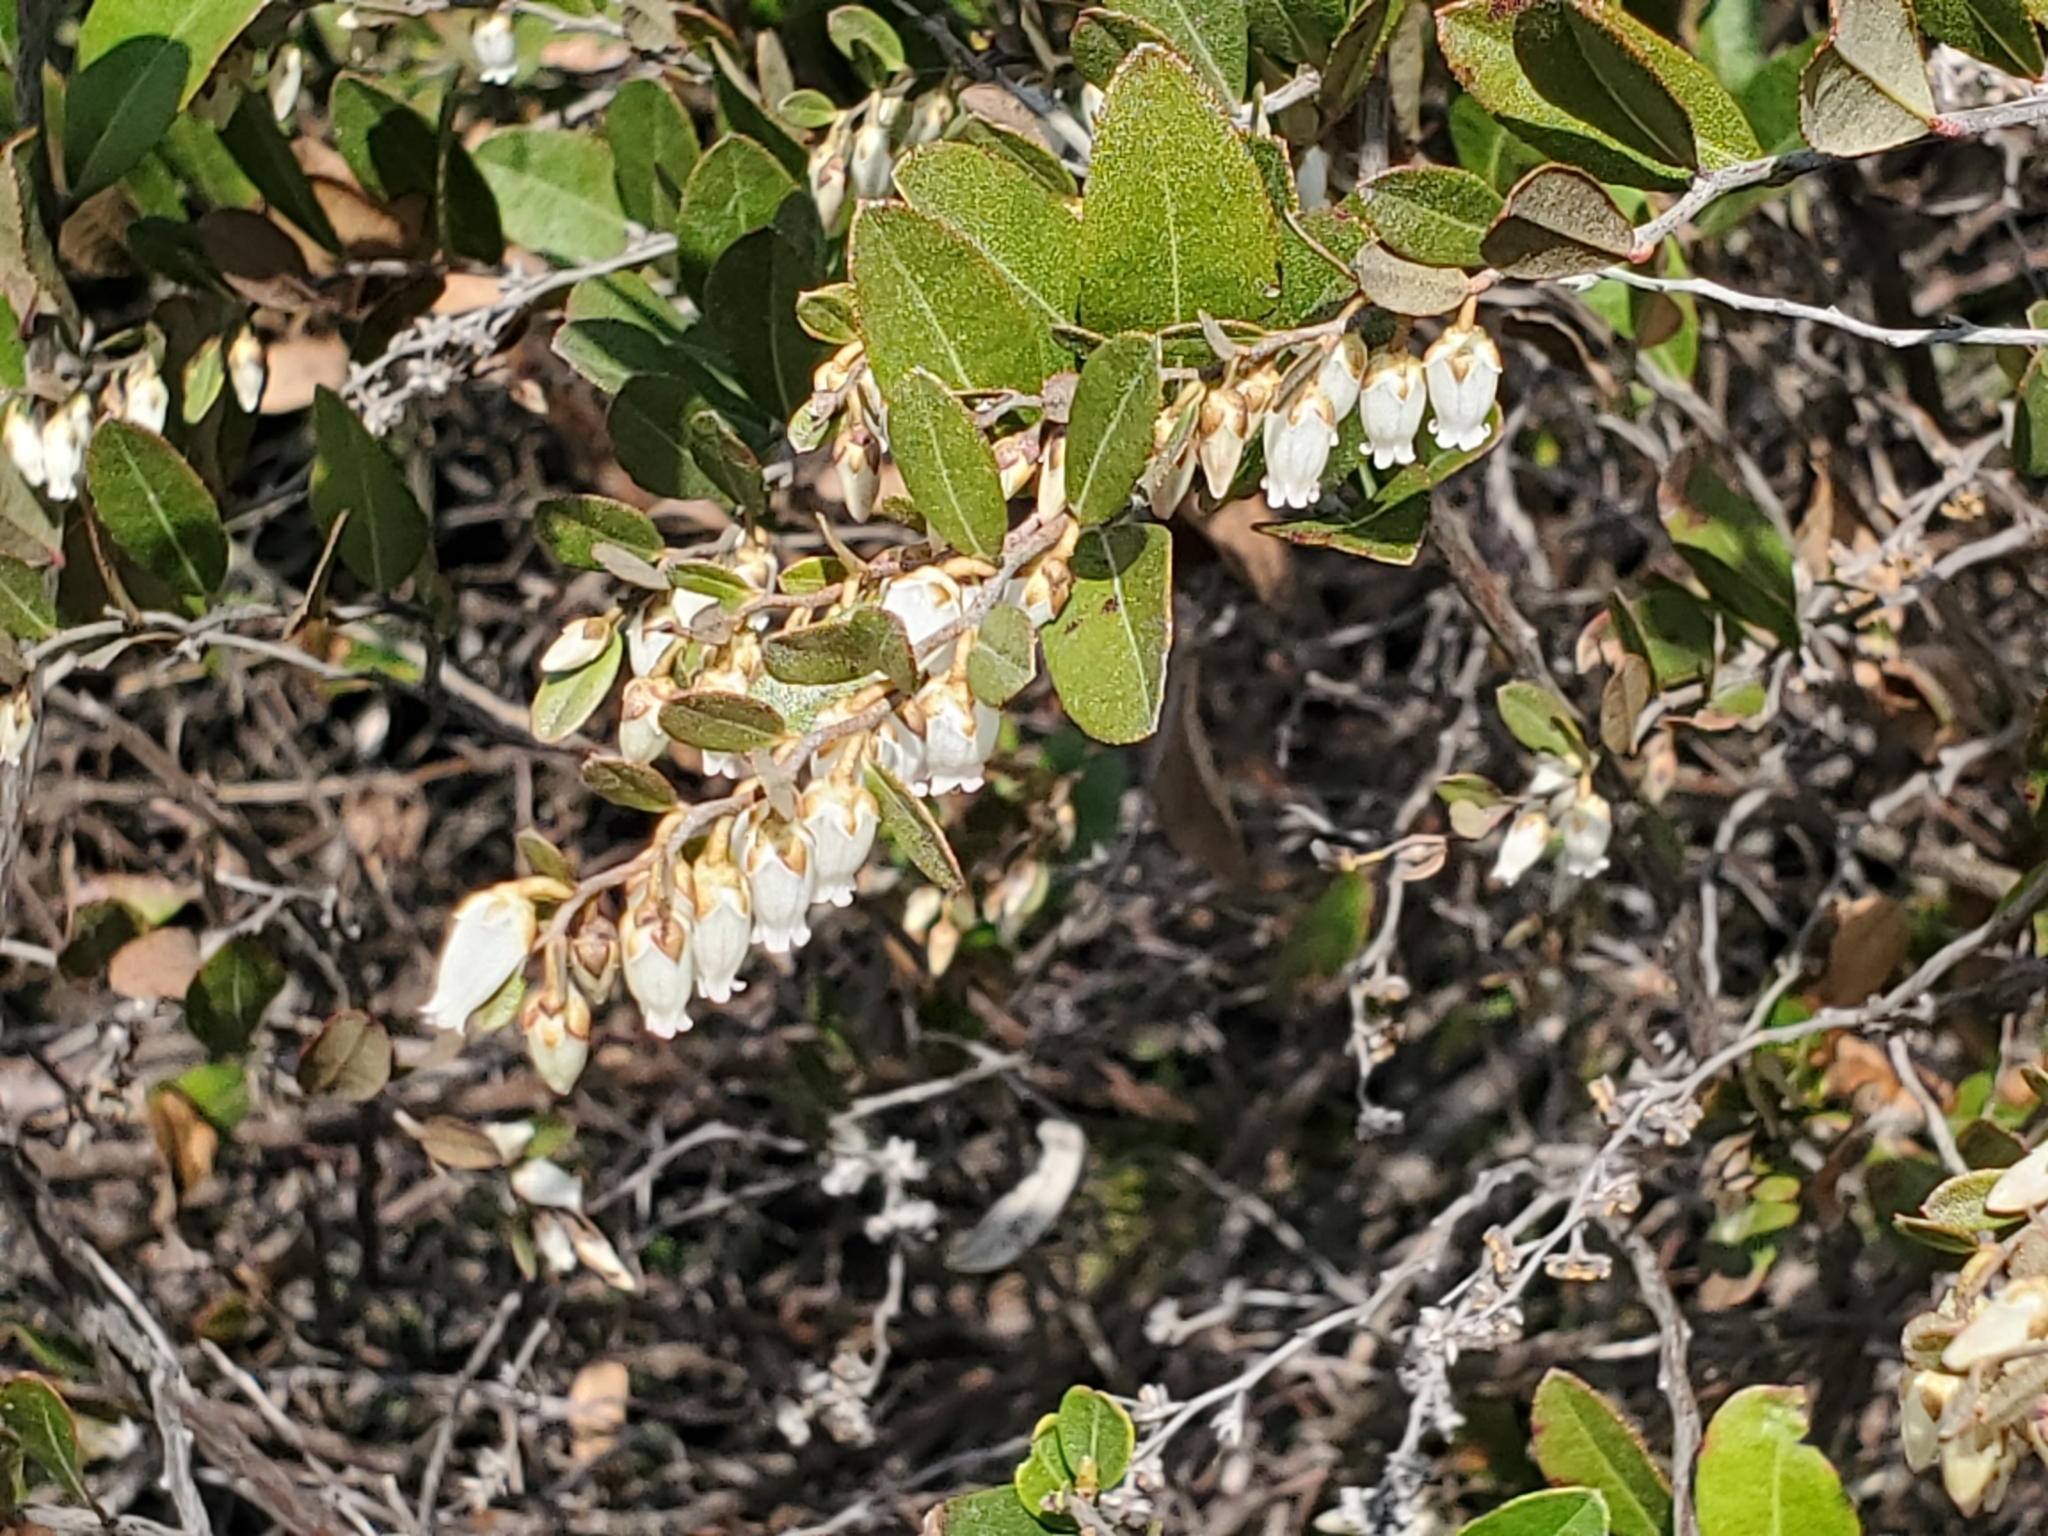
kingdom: Plantae
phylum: Tracheophyta
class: Magnoliopsida
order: Ericales
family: Ericaceae
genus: Chamaedaphne
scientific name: Chamaedaphne calyculata
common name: Leatherleaf
